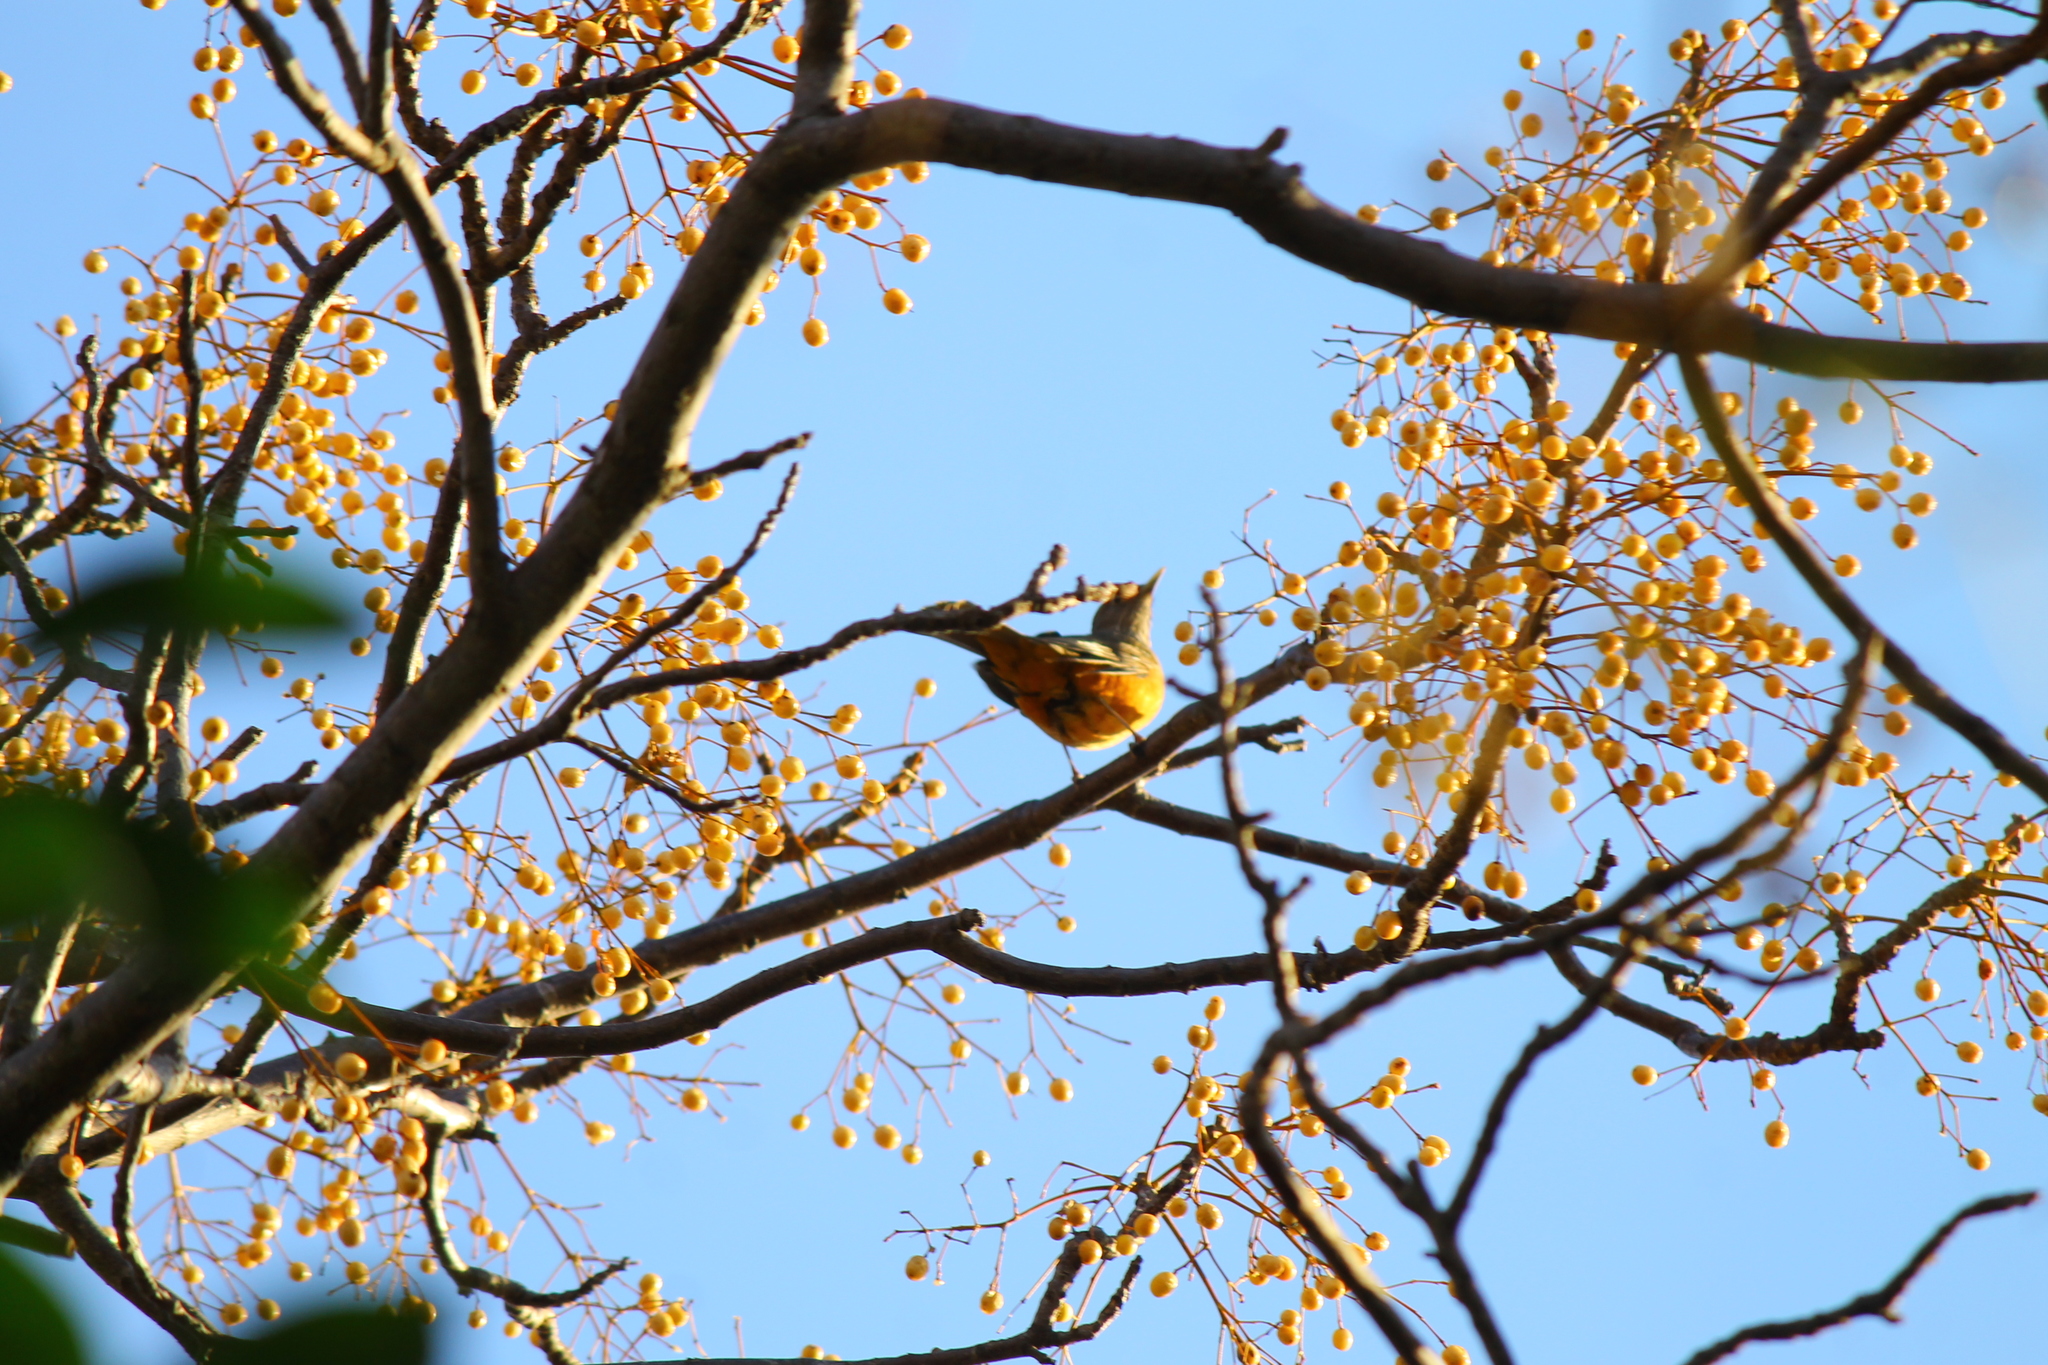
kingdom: Animalia
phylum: Chordata
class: Aves
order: Passeriformes
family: Turdidae
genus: Turdus
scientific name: Turdus rufiventris
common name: Rufous-bellied thrush
